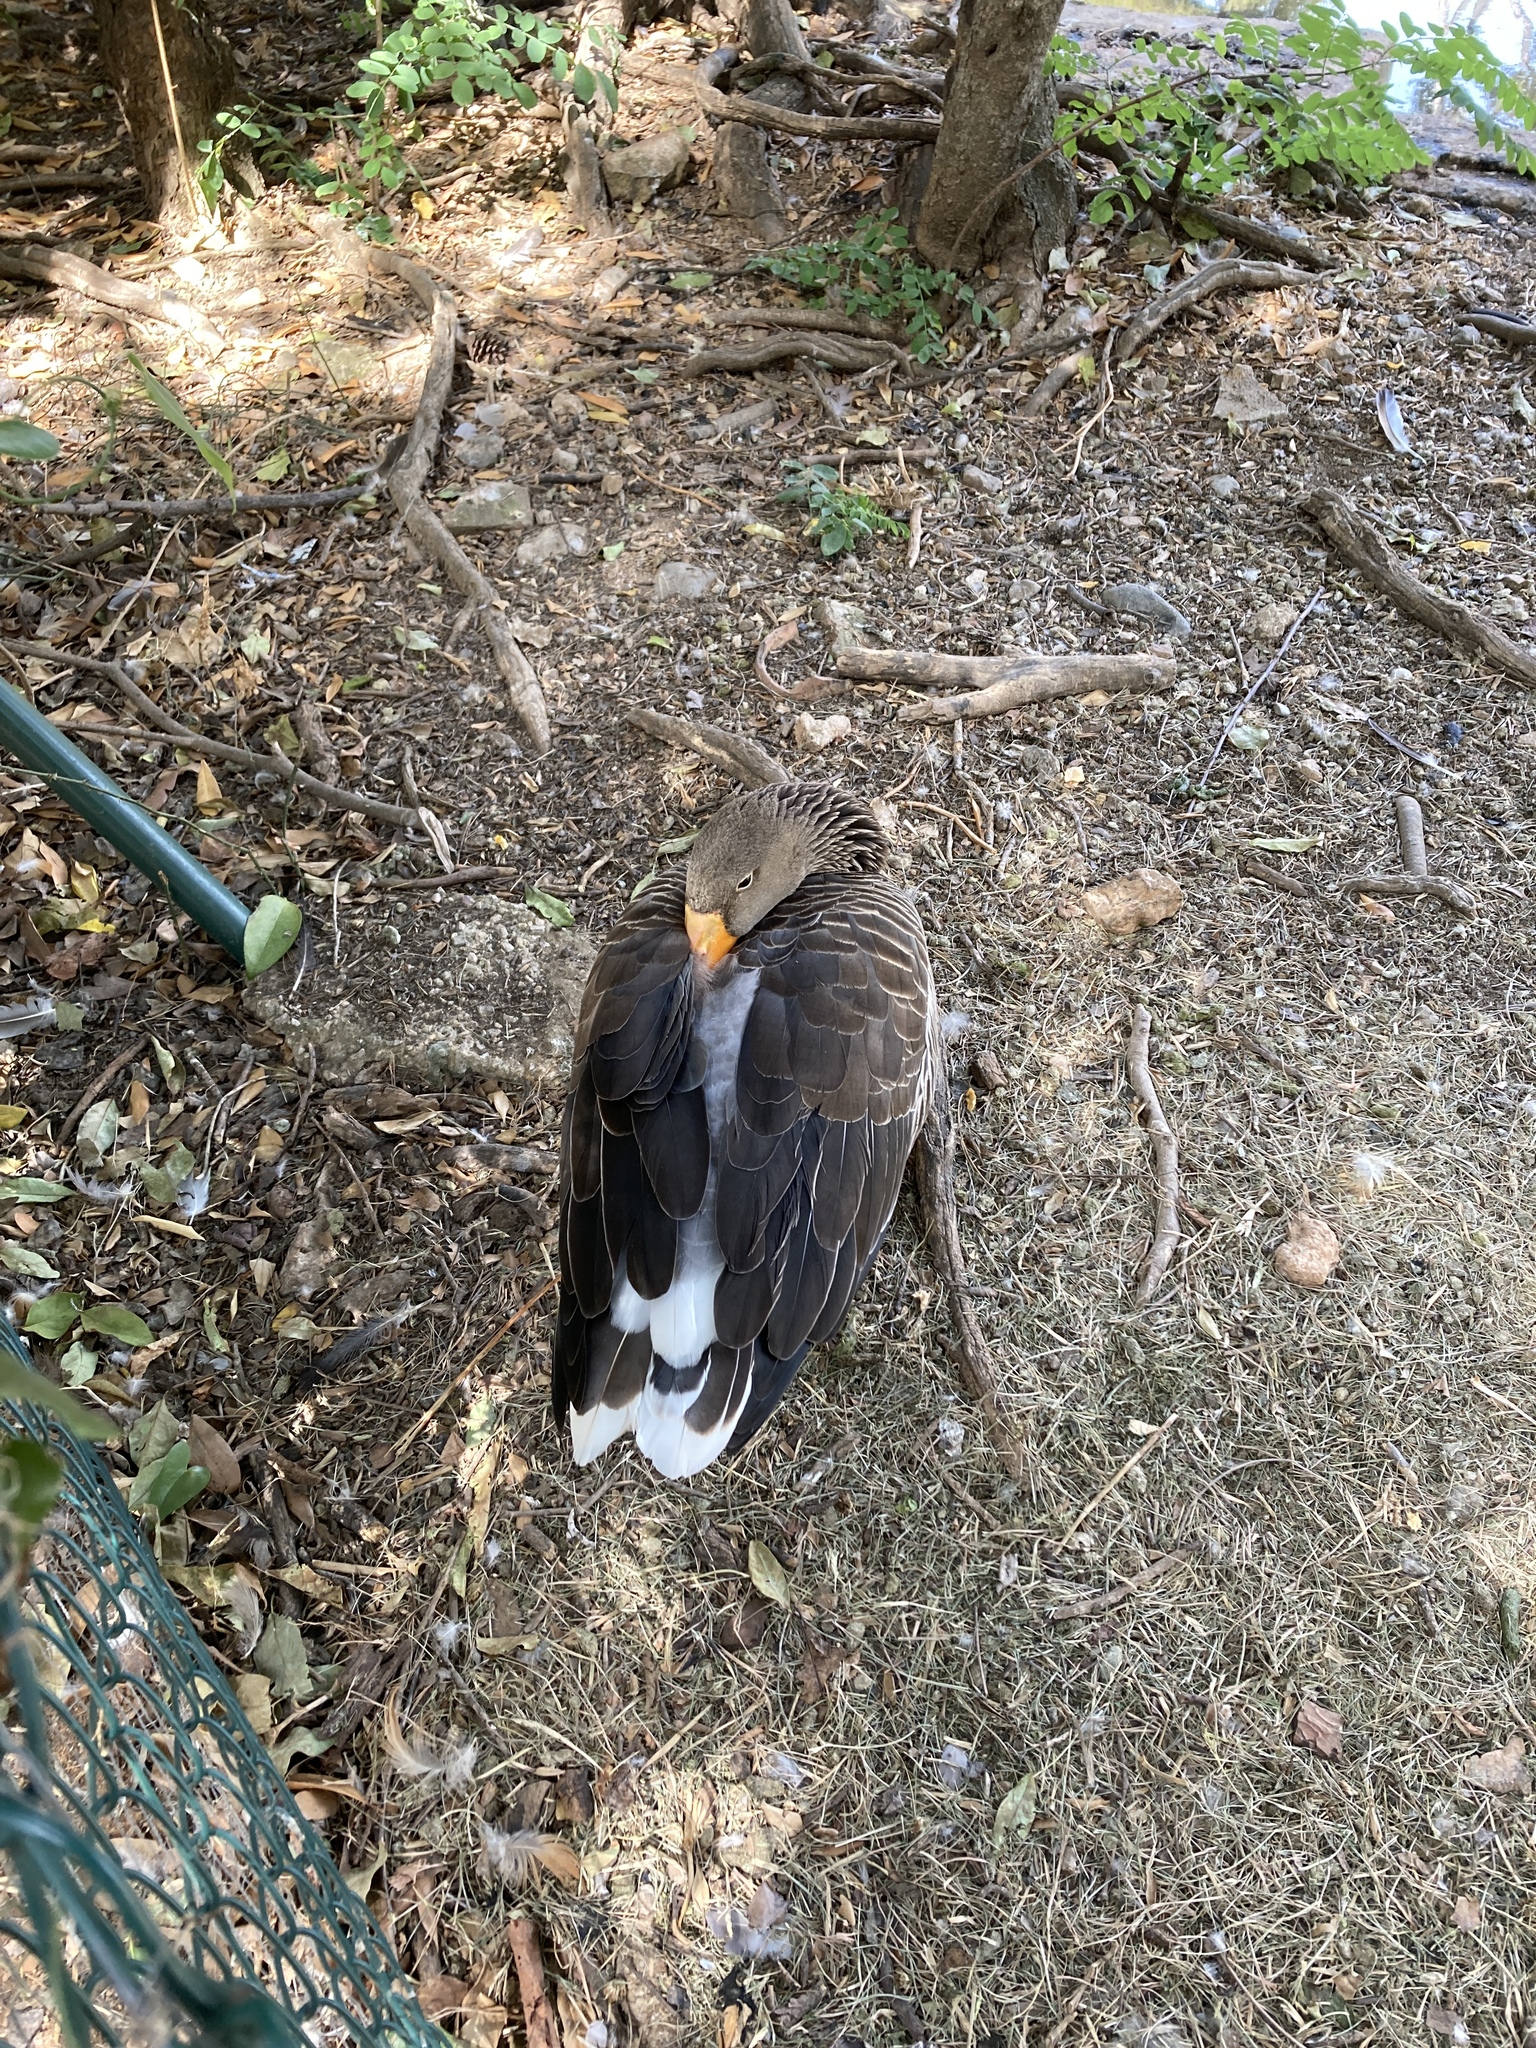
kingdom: Animalia
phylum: Chordata
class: Aves
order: Anseriformes
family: Anatidae
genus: Anser
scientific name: Anser anser
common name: Greylag goose
